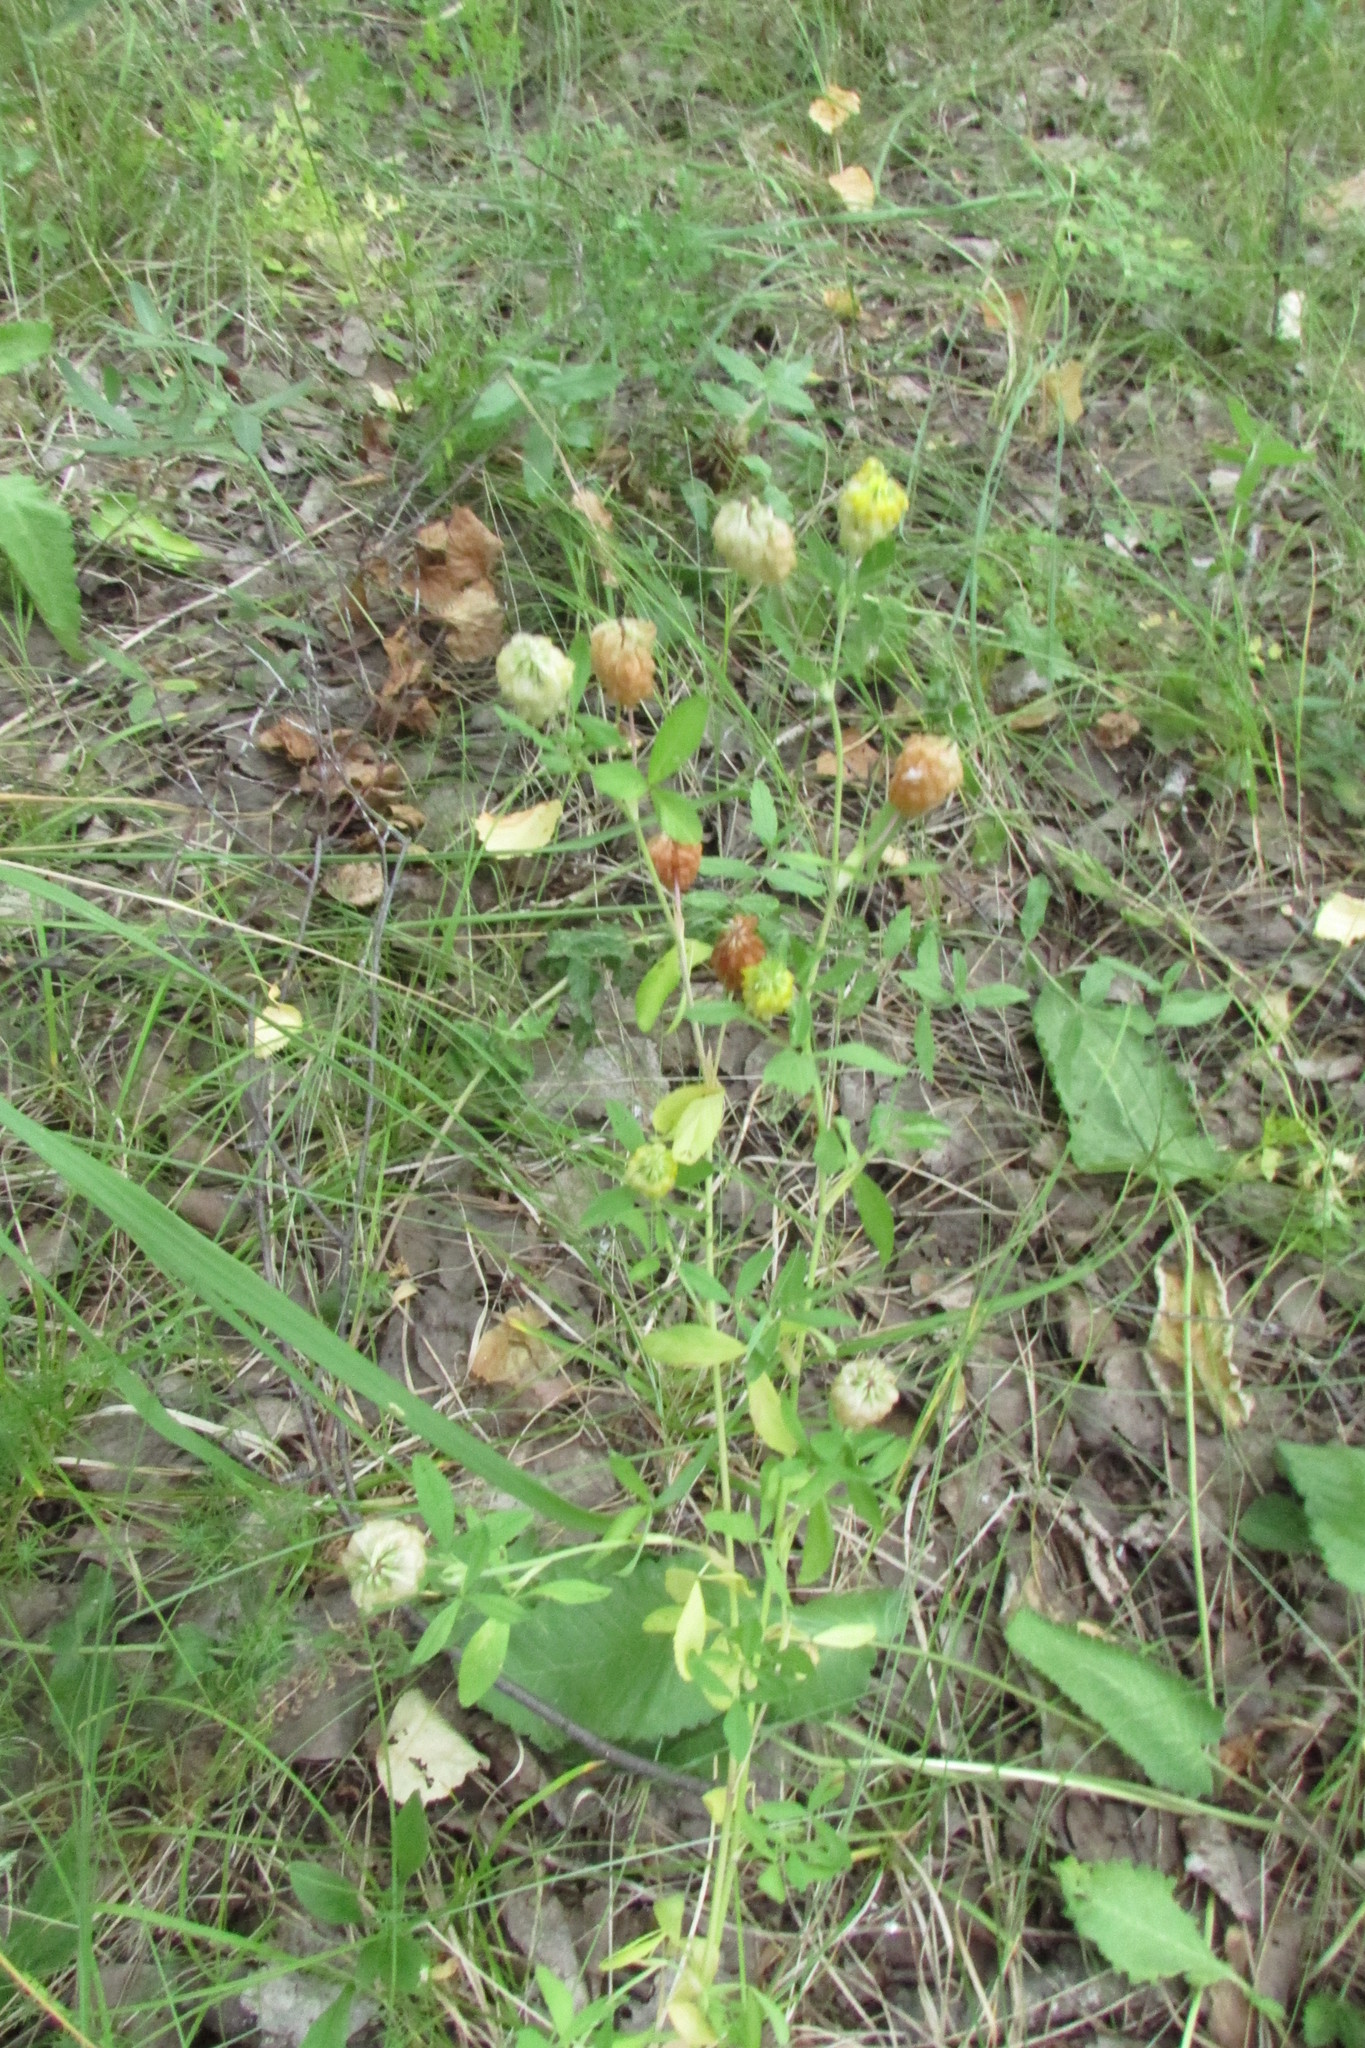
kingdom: Plantae
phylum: Tracheophyta
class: Magnoliopsida
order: Fabales
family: Fabaceae
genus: Trifolium
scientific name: Trifolium aureum
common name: Golden clover
